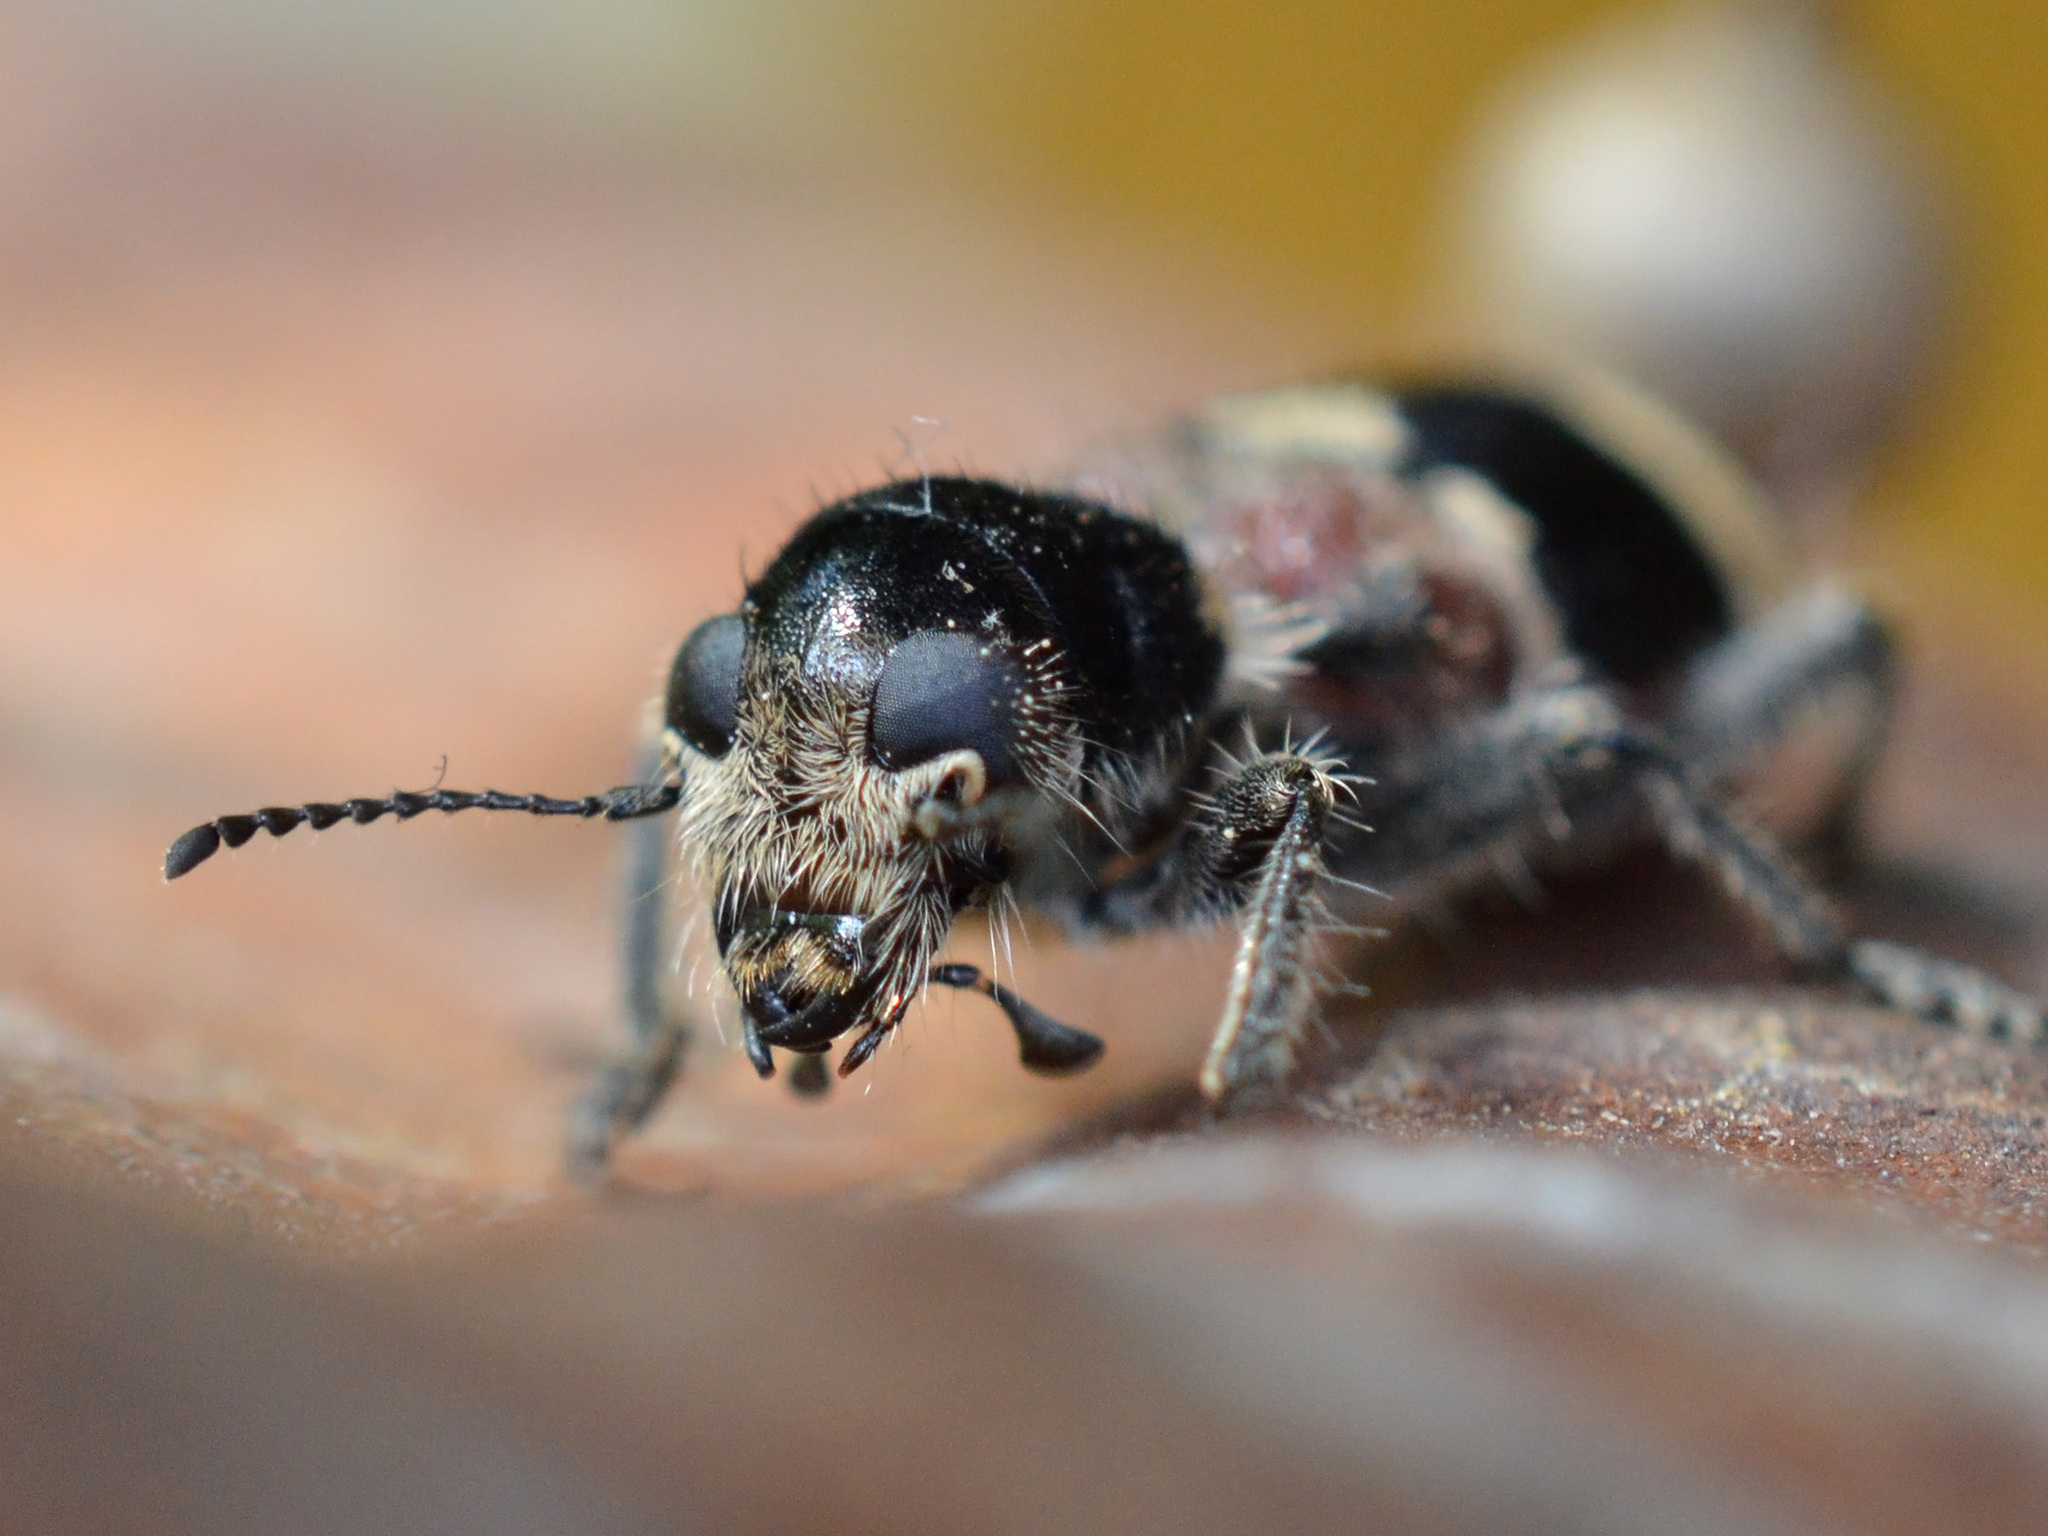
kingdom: Animalia
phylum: Arthropoda
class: Insecta
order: Coleoptera
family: Cleridae
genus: Clerus
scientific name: Clerus mutillarius
